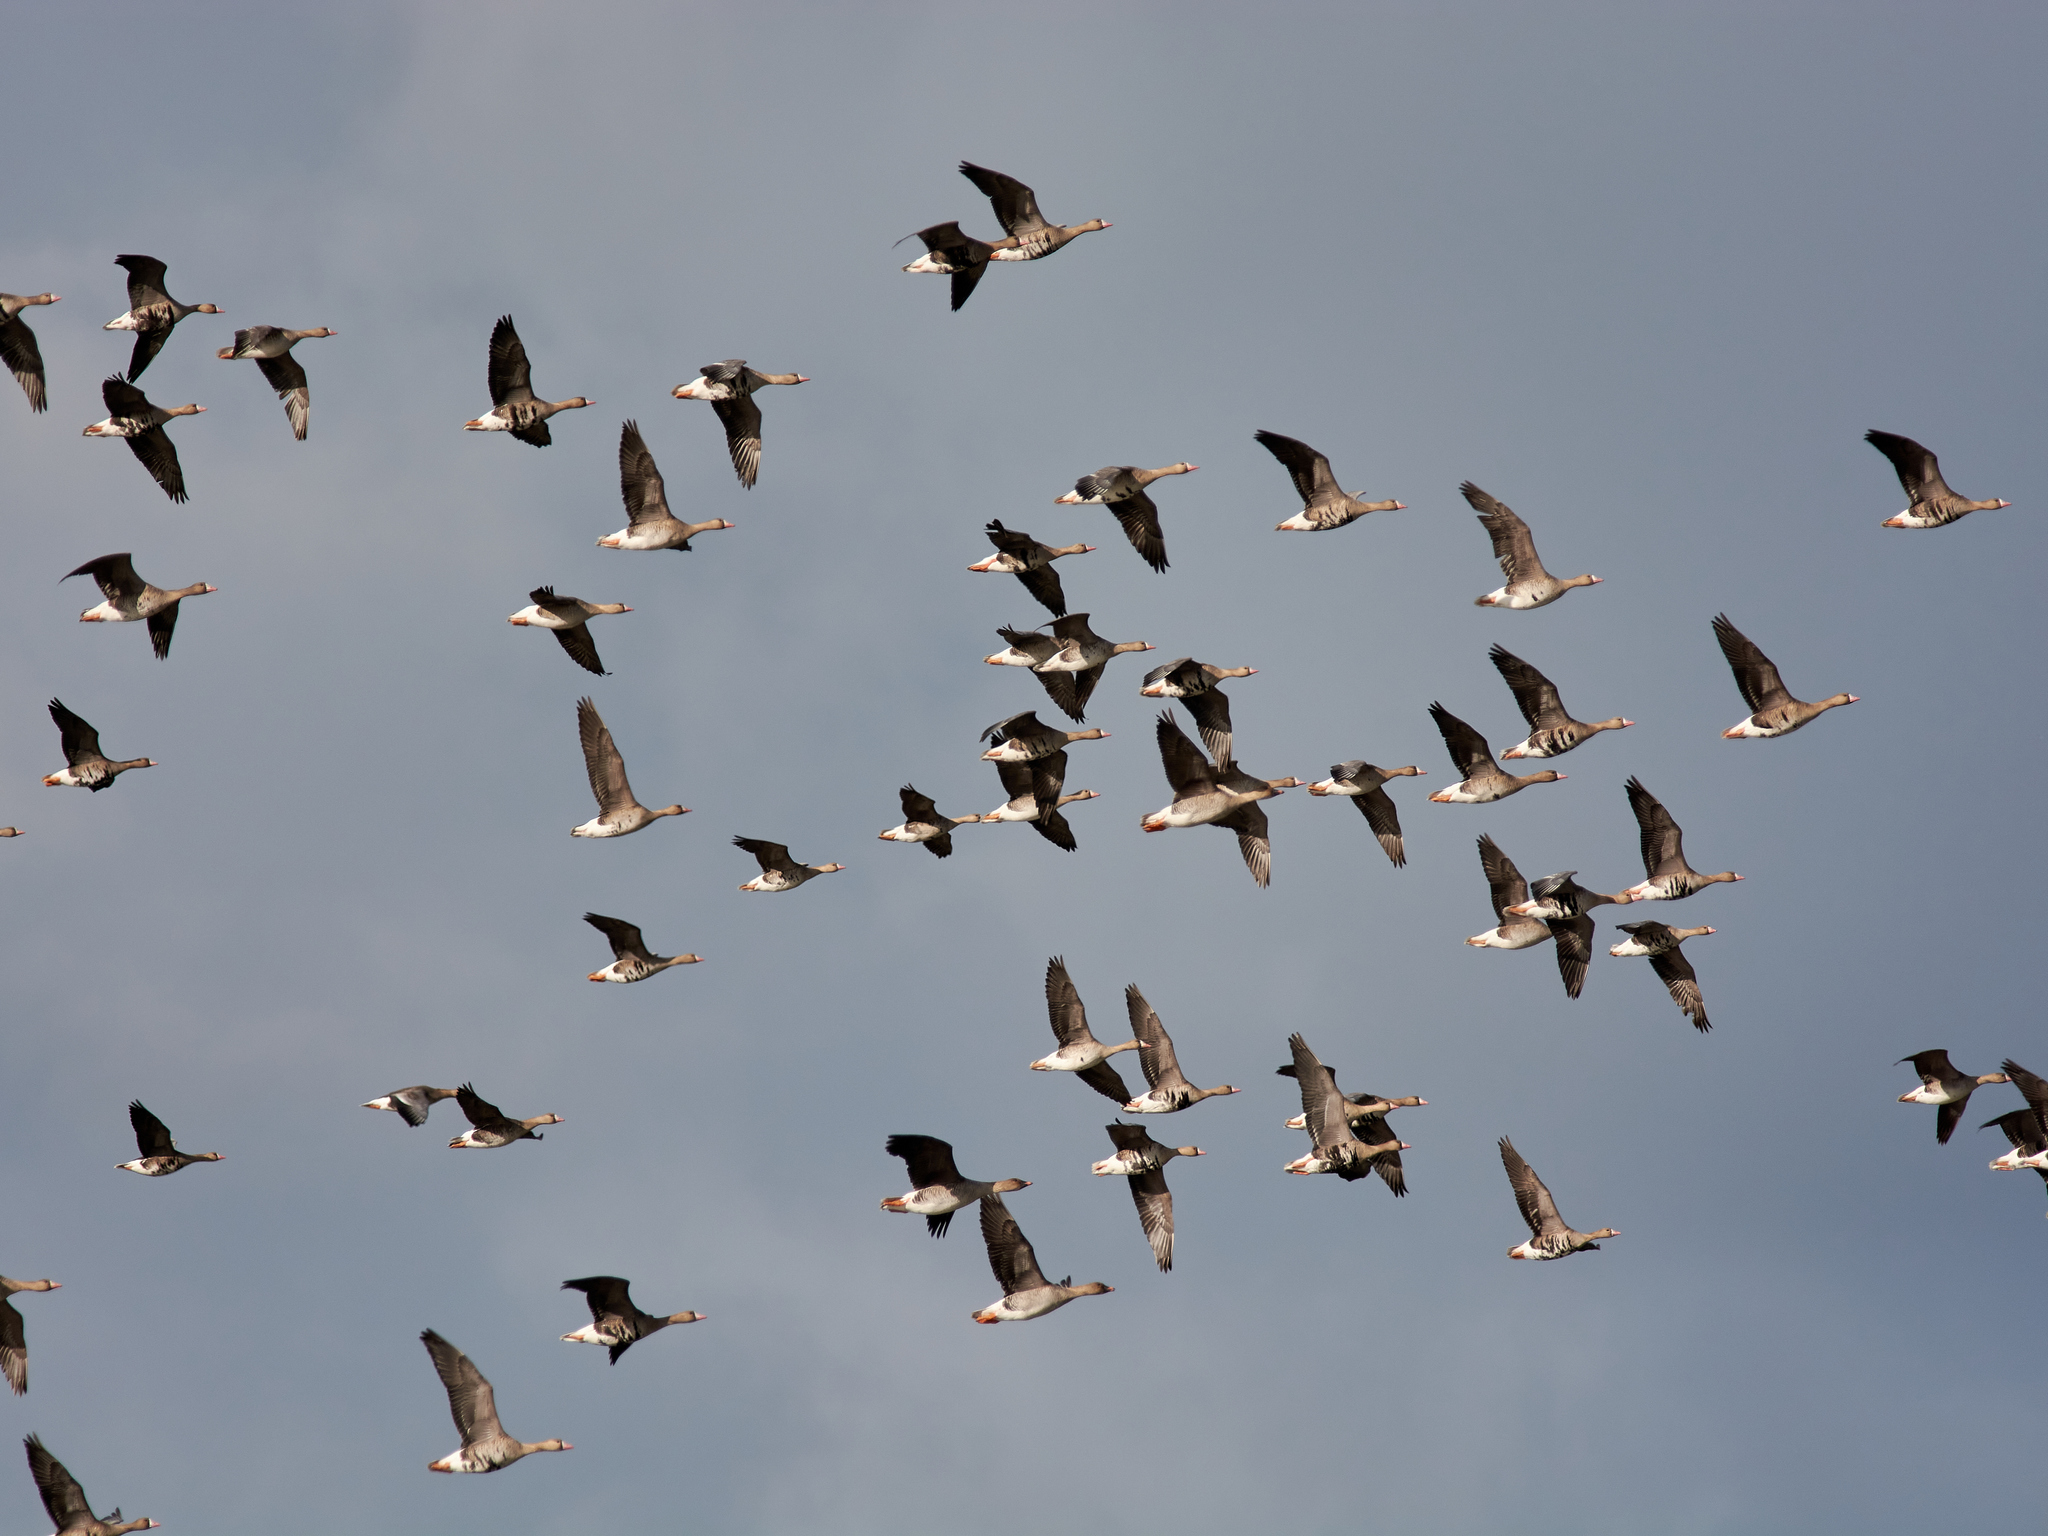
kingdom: Animalia
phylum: Chordata
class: Aves
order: Anseriformes
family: Anatidae
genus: Anser
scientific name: Anser albifrons
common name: Greater white-fronted goose
